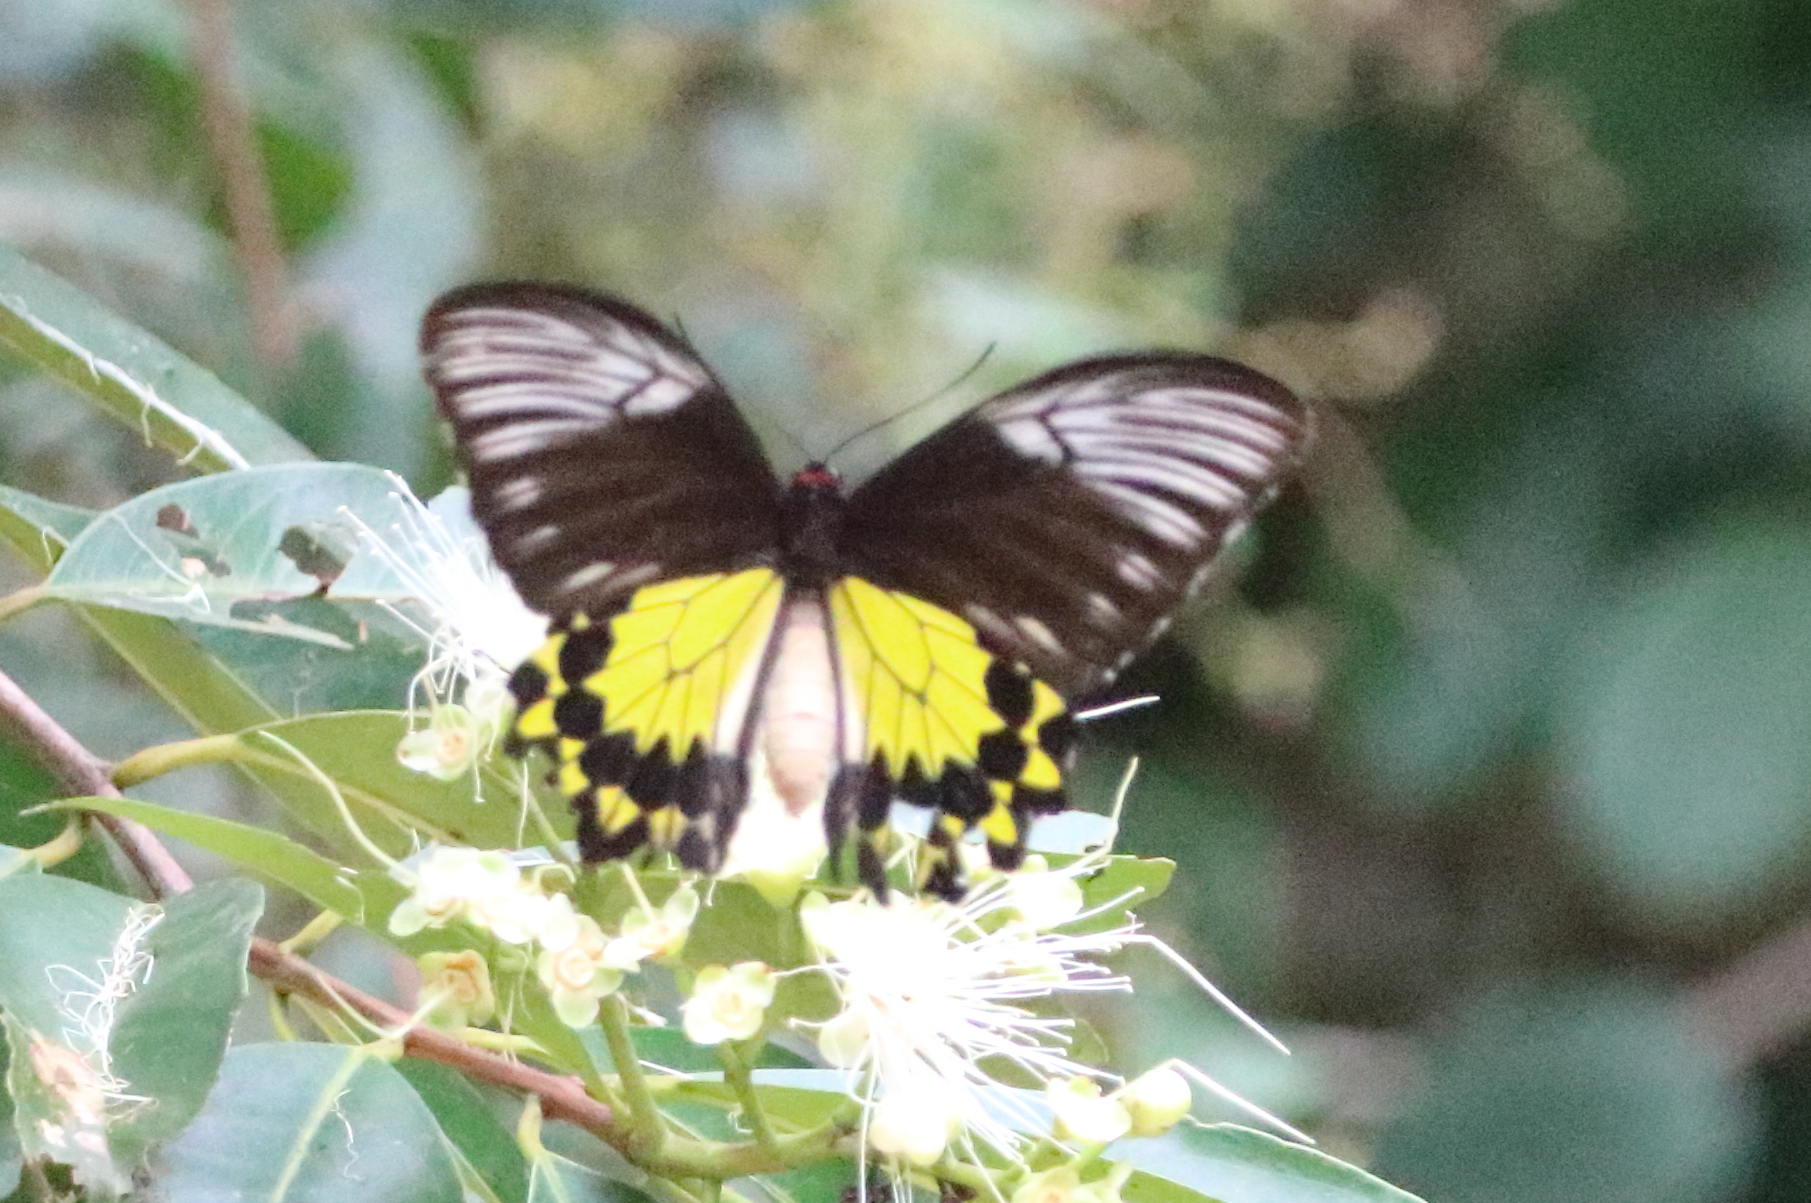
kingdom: Animalia
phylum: Arthropoda
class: Insecta
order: Lepidoptera
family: Papilionidae
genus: Troides
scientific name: Troides amphrysus
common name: Malay birdwing
